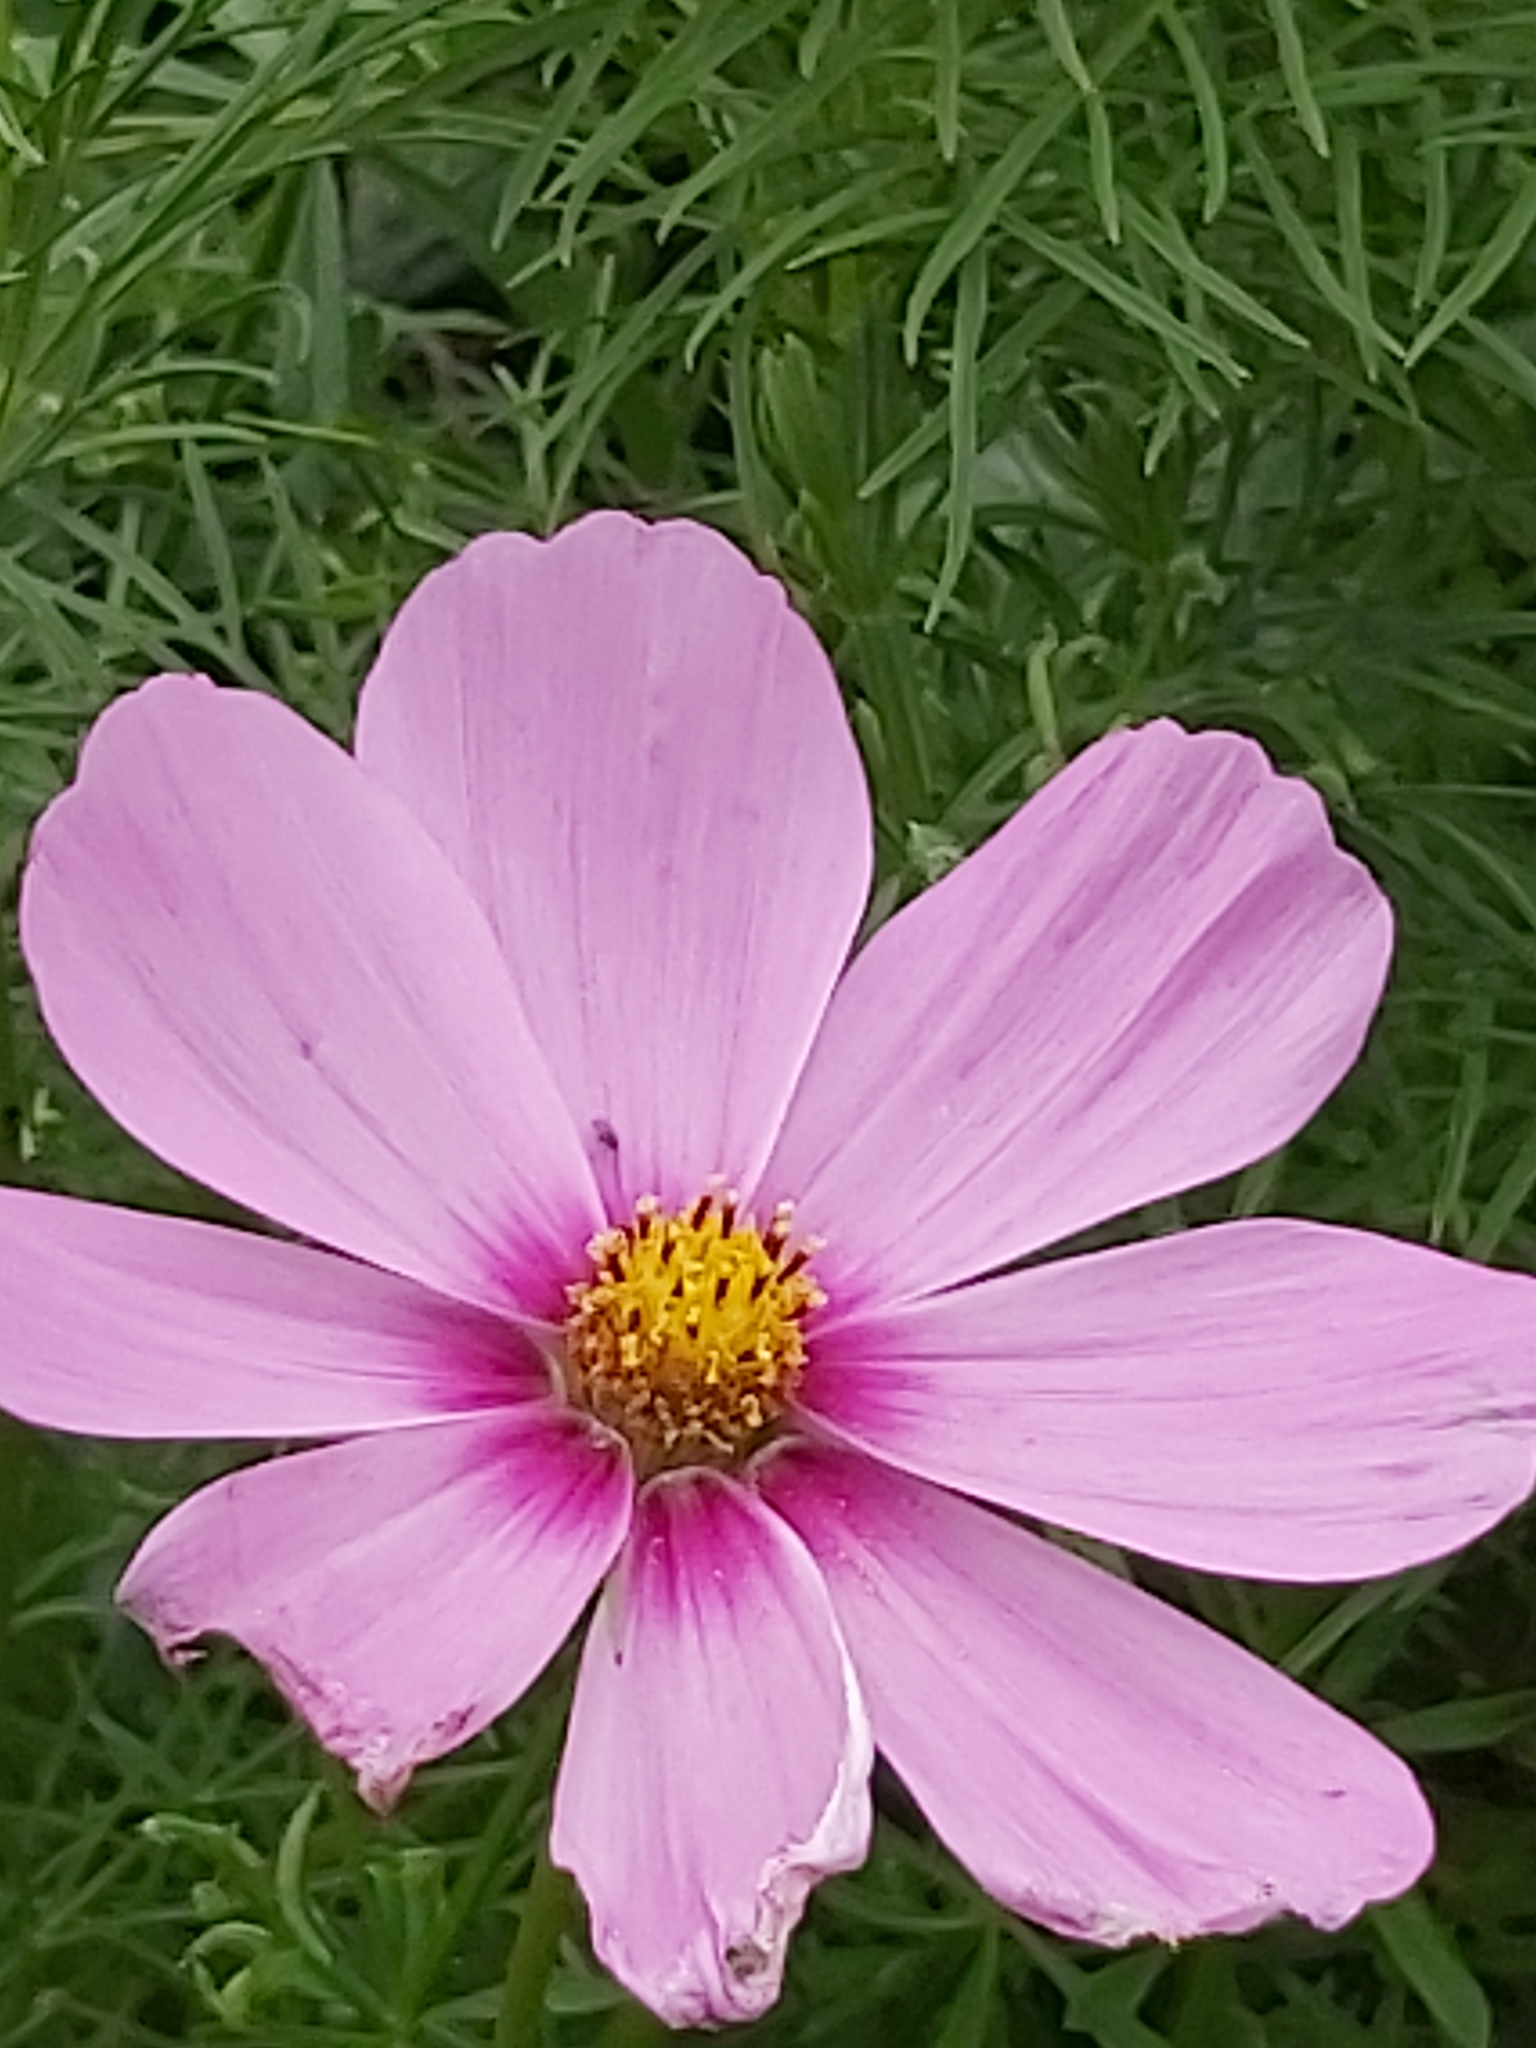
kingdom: Plantae
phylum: Tracheophyta
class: Magnoliopsida
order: Asterales
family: Asteraceae
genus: Cosmos
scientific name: Cosmos bipinnatus
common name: Garden cosmos
